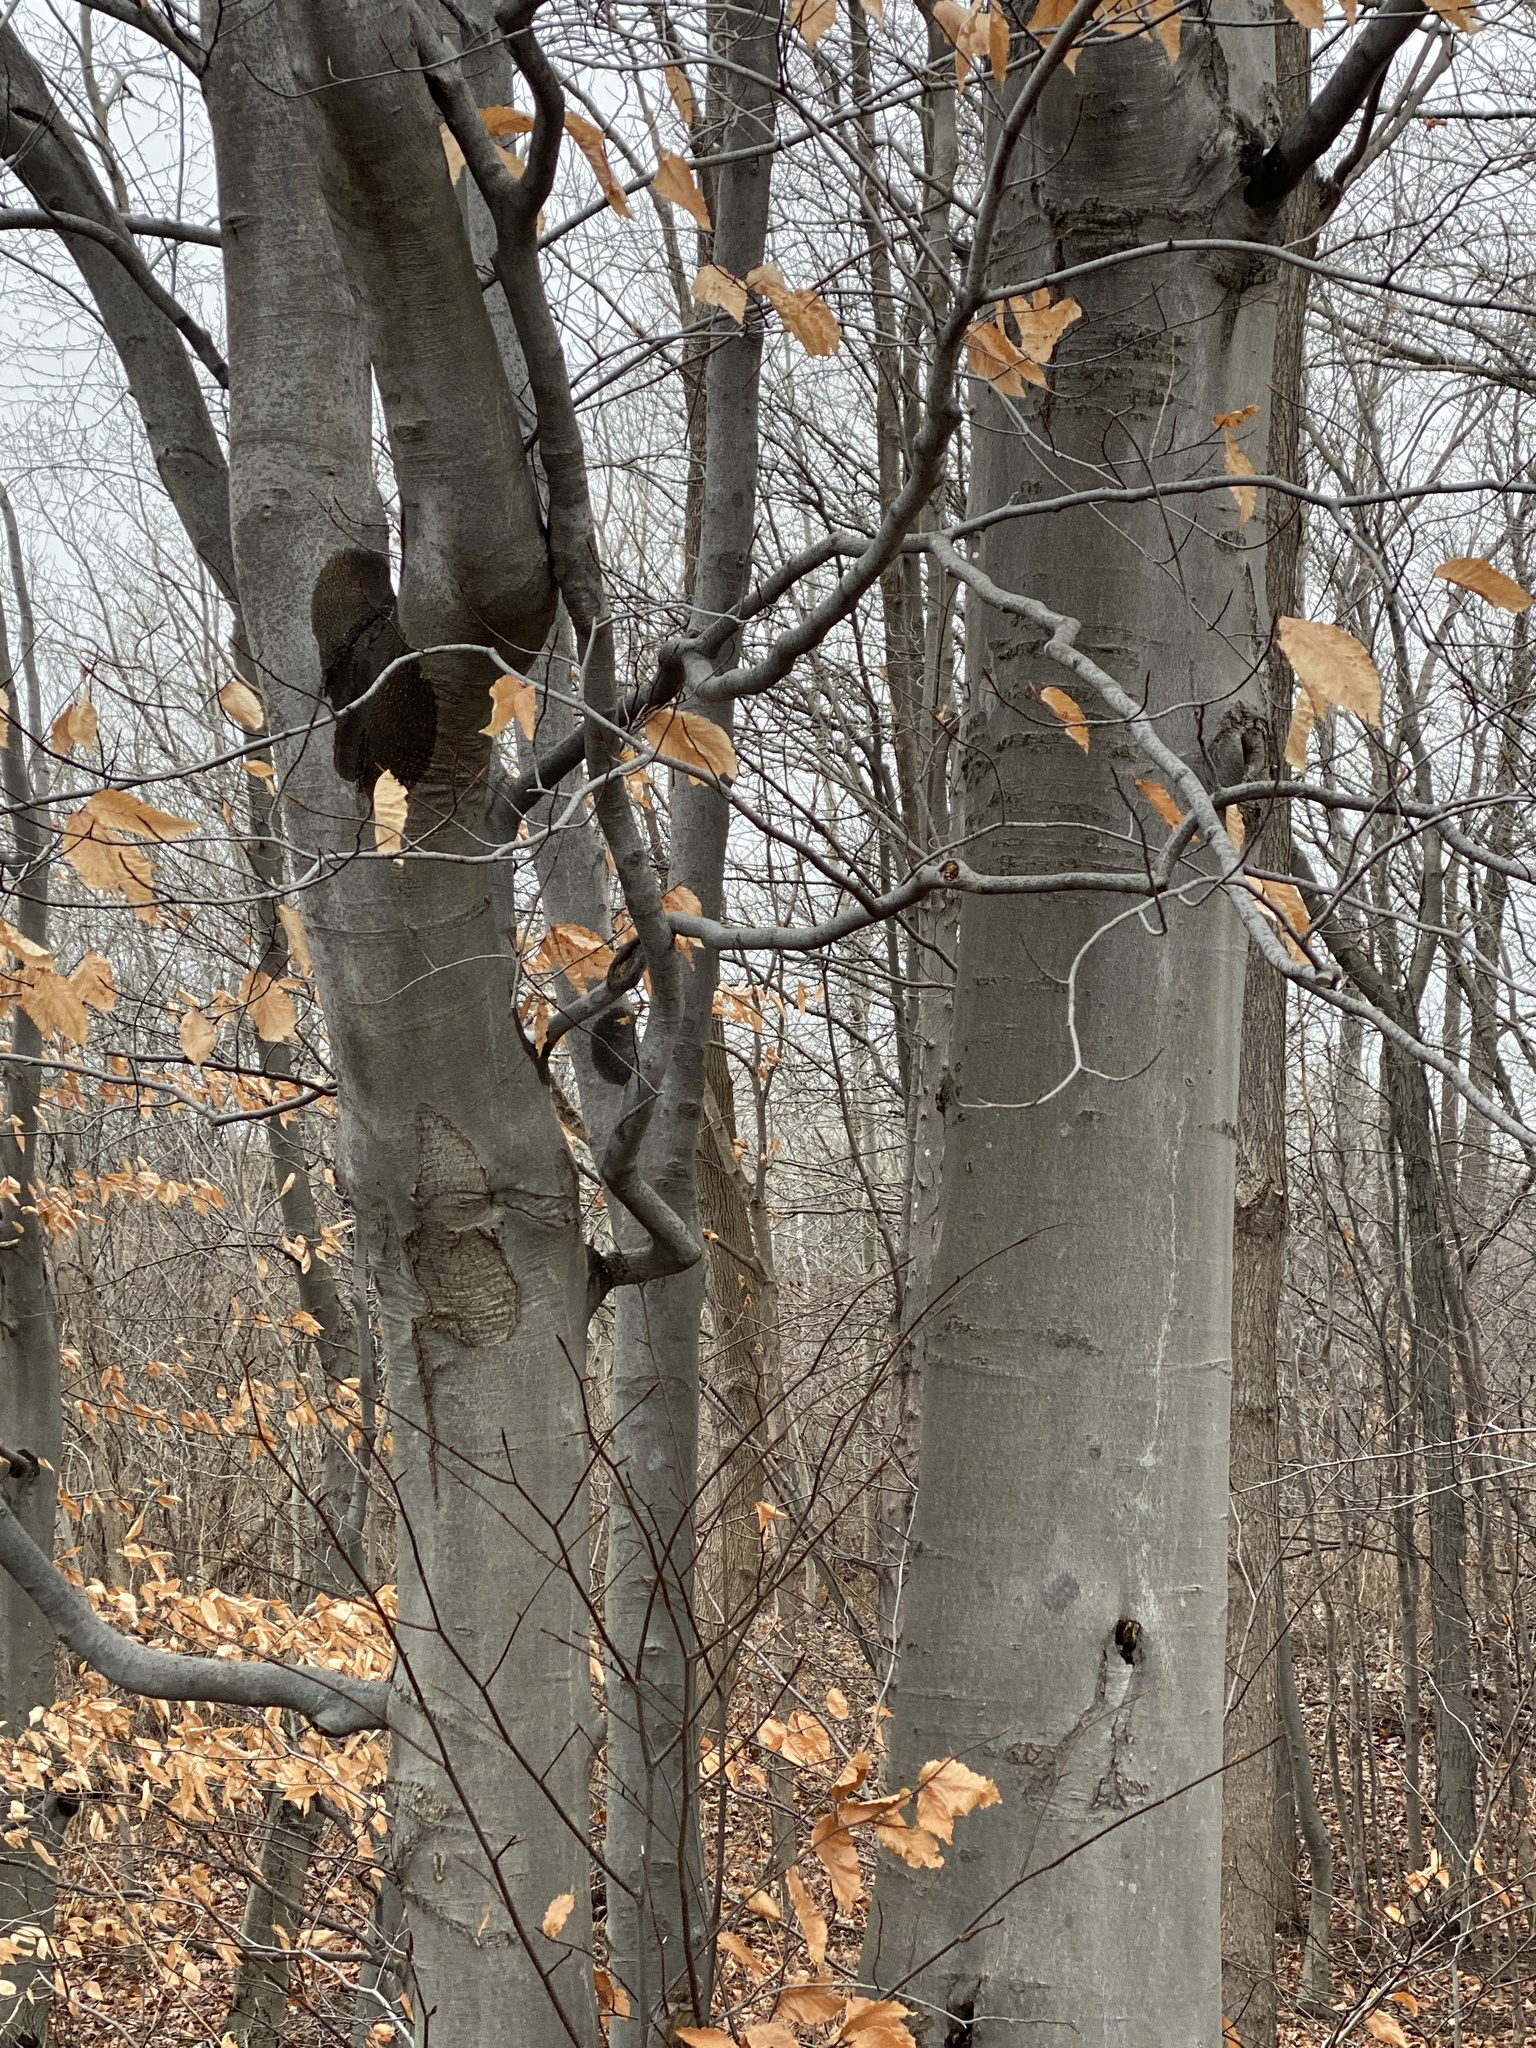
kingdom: Plantae
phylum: Tracheophyta
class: Magnoliopsida
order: Fagales
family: Fagaceae
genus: Fagus
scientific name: Fagus grandifolia
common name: American beech
